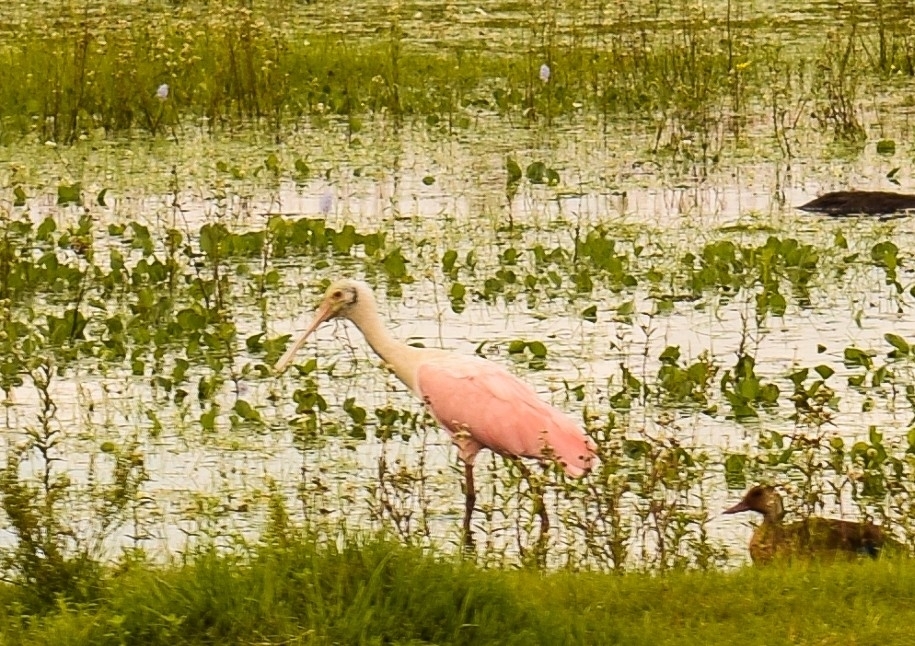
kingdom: Animalia
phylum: Chordata
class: Aves
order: Pelecaniformes
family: Threskiornithidae
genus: Platalea
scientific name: Platalea ajaja
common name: Roseate spoonbill
